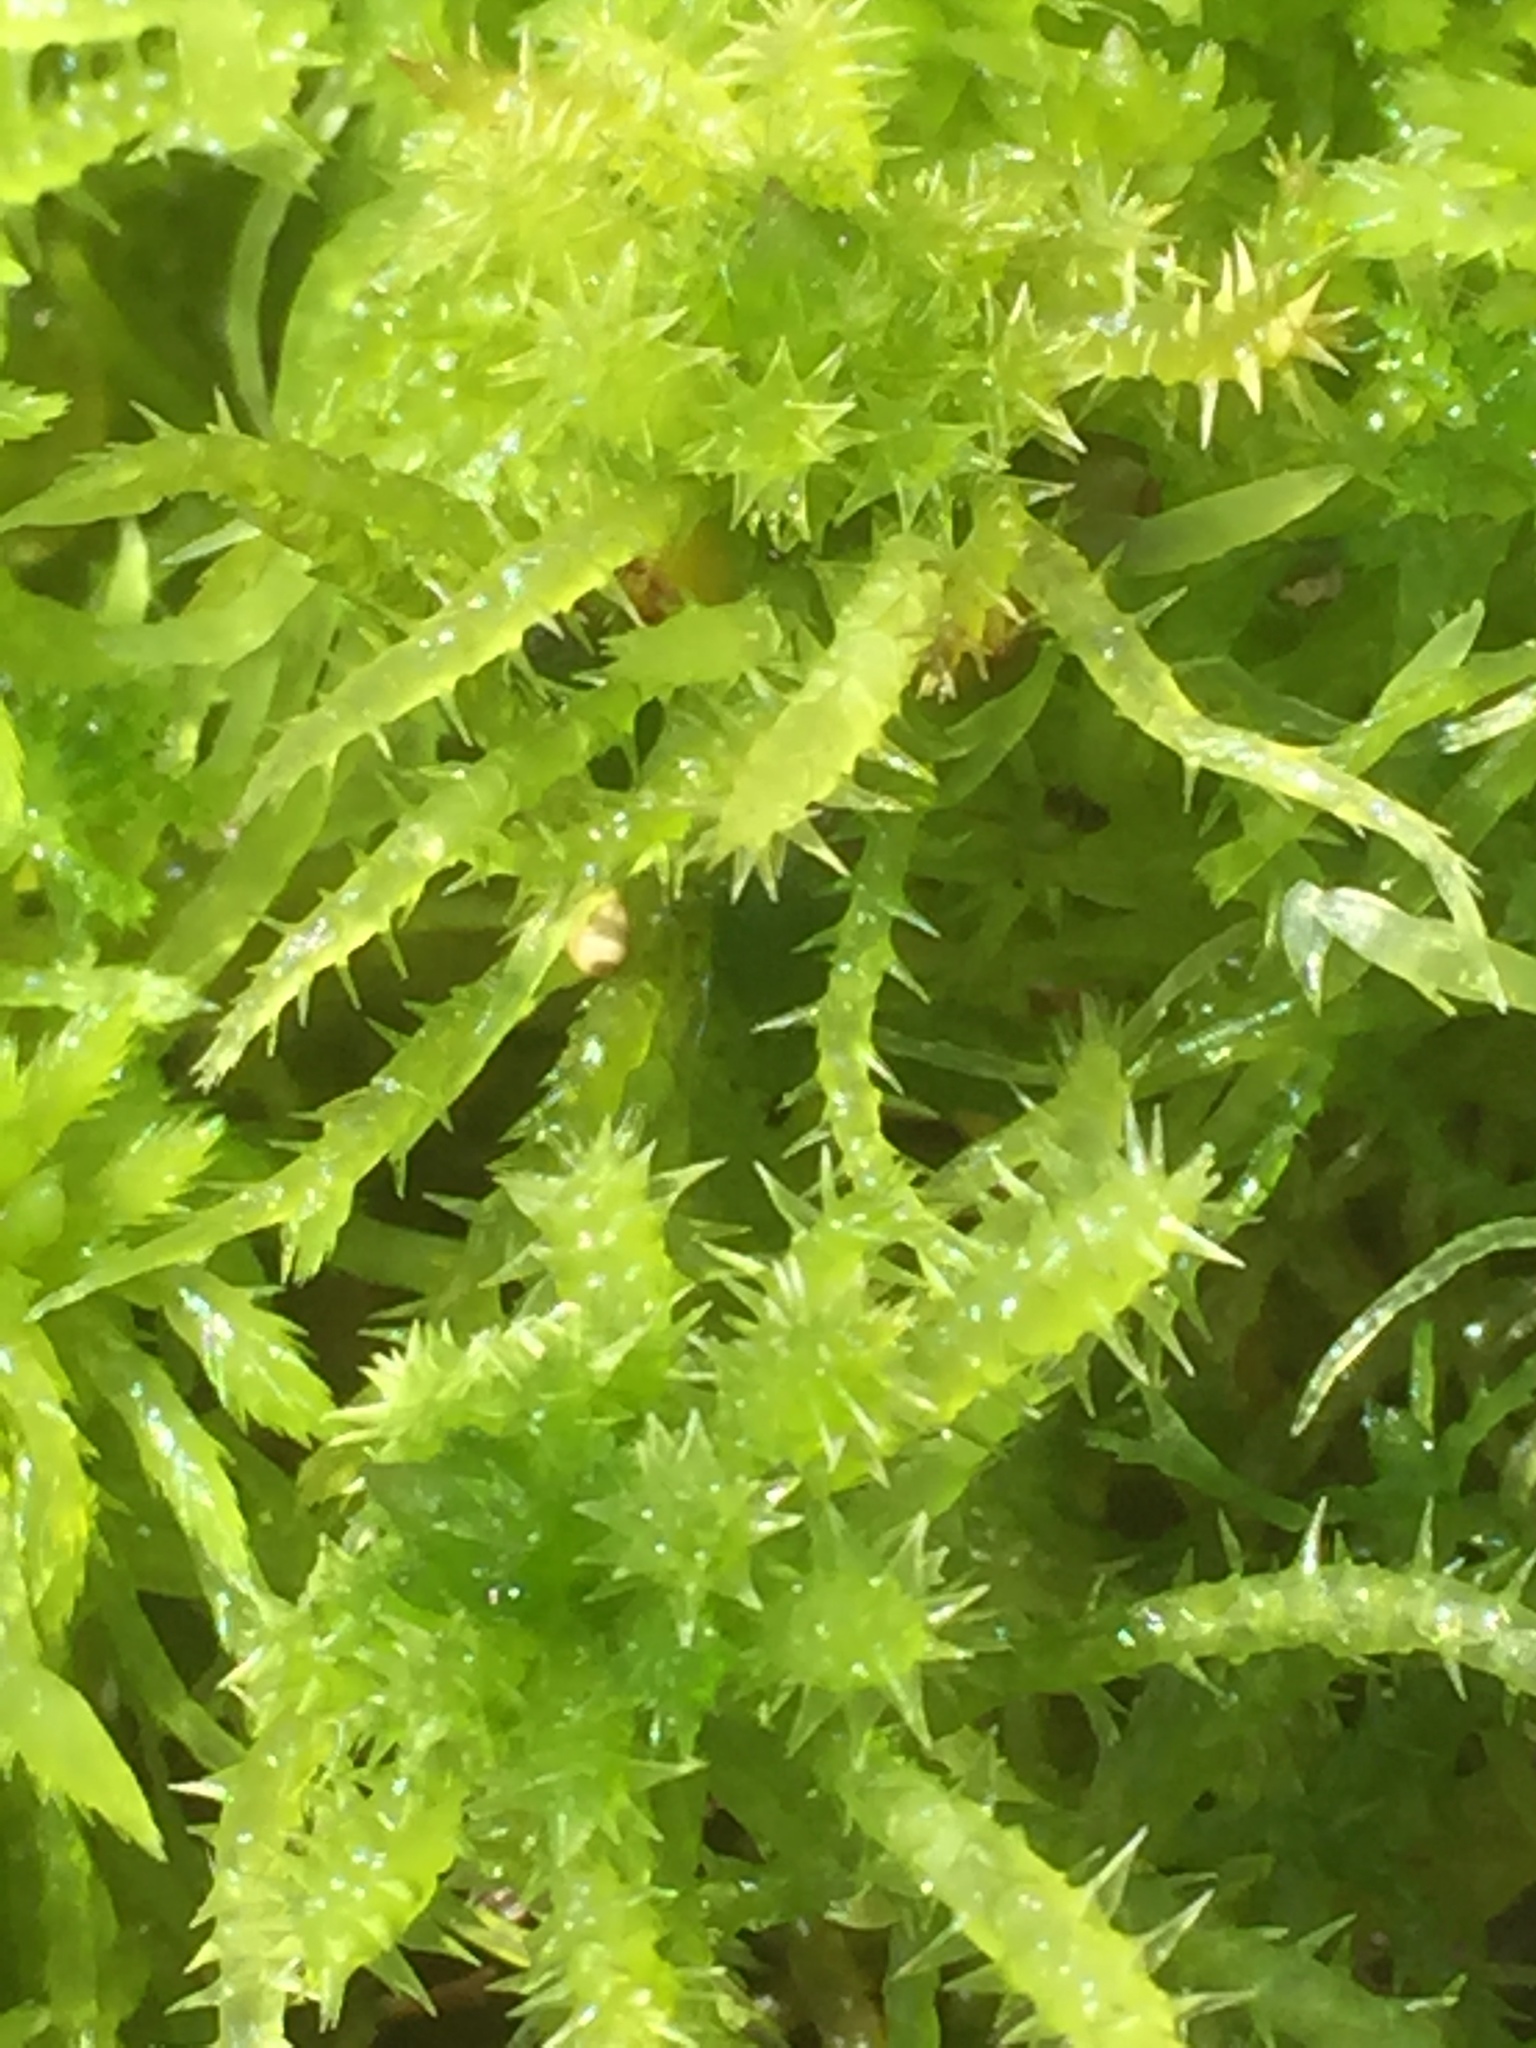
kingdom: Plantae
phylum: Bryophyta
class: Sphagnopsida
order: Sphagnales
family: Sphagnaceae
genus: Sphagnum
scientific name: Sphagnum squarrosum
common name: Shaggy peat moss
